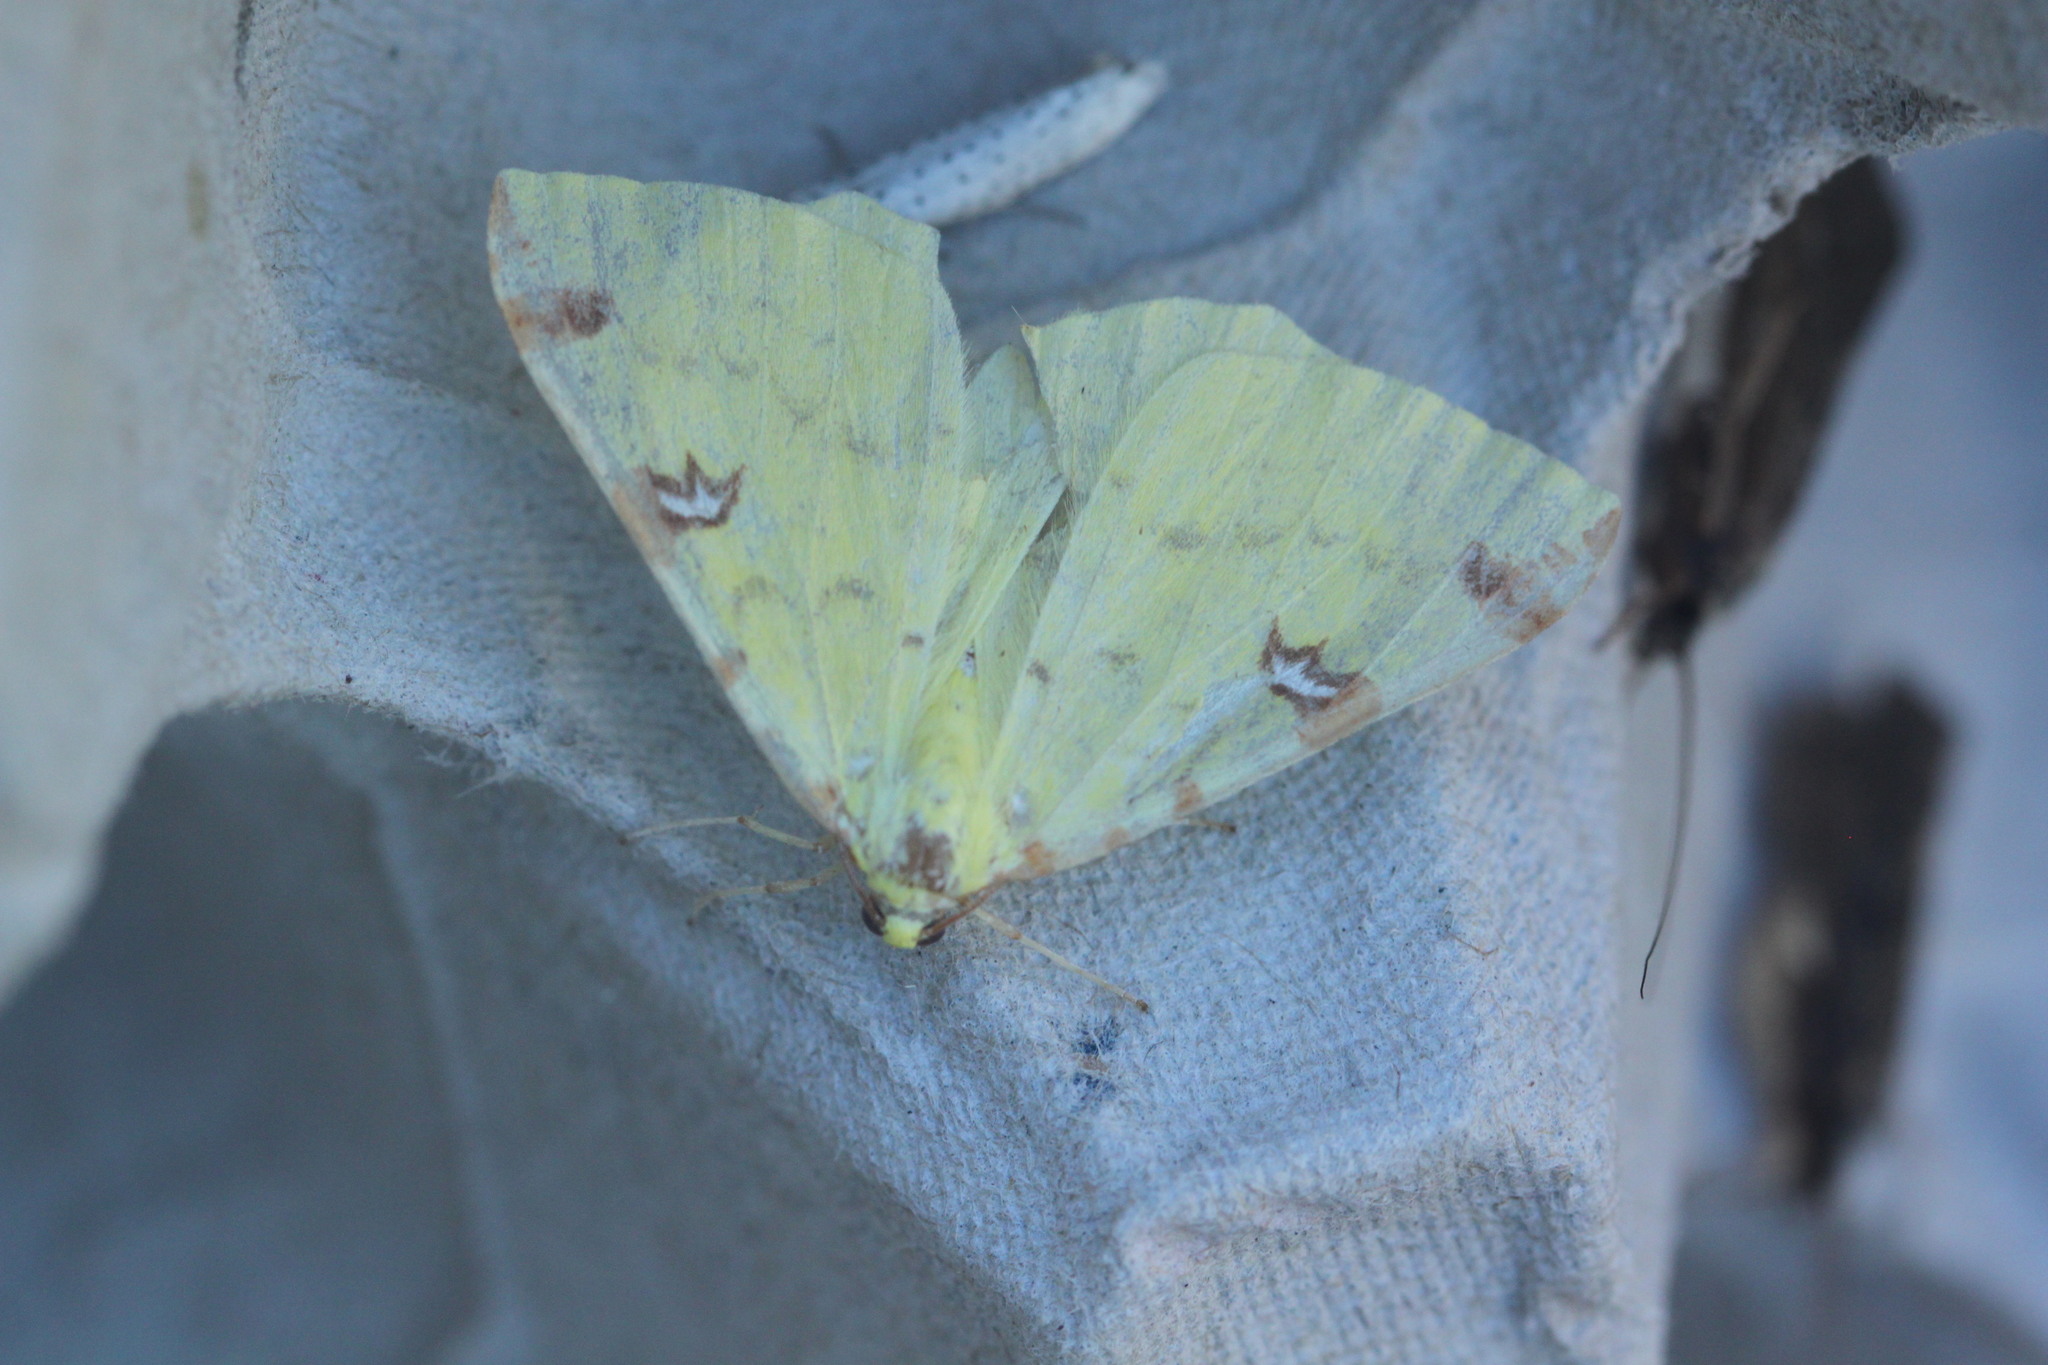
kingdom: Animalia
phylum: Arthropoda
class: Insecta
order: Lepidoptera
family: Geometridae
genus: Opisthograptis
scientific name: Opisthograptis luteolata
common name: Brimstone moth
